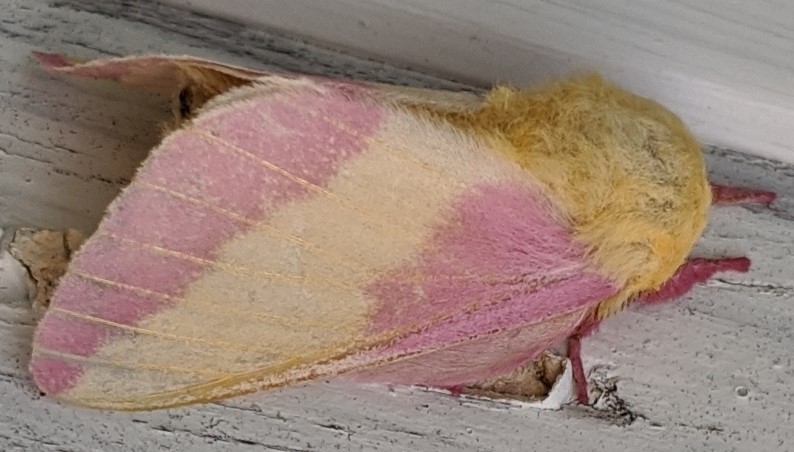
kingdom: Animalia
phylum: Arthropoda
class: Insecta
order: Lepidoptera
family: Saturniidae
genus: Dryocampa
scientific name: Dryocampa rubicunda
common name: Rosy maple moth
